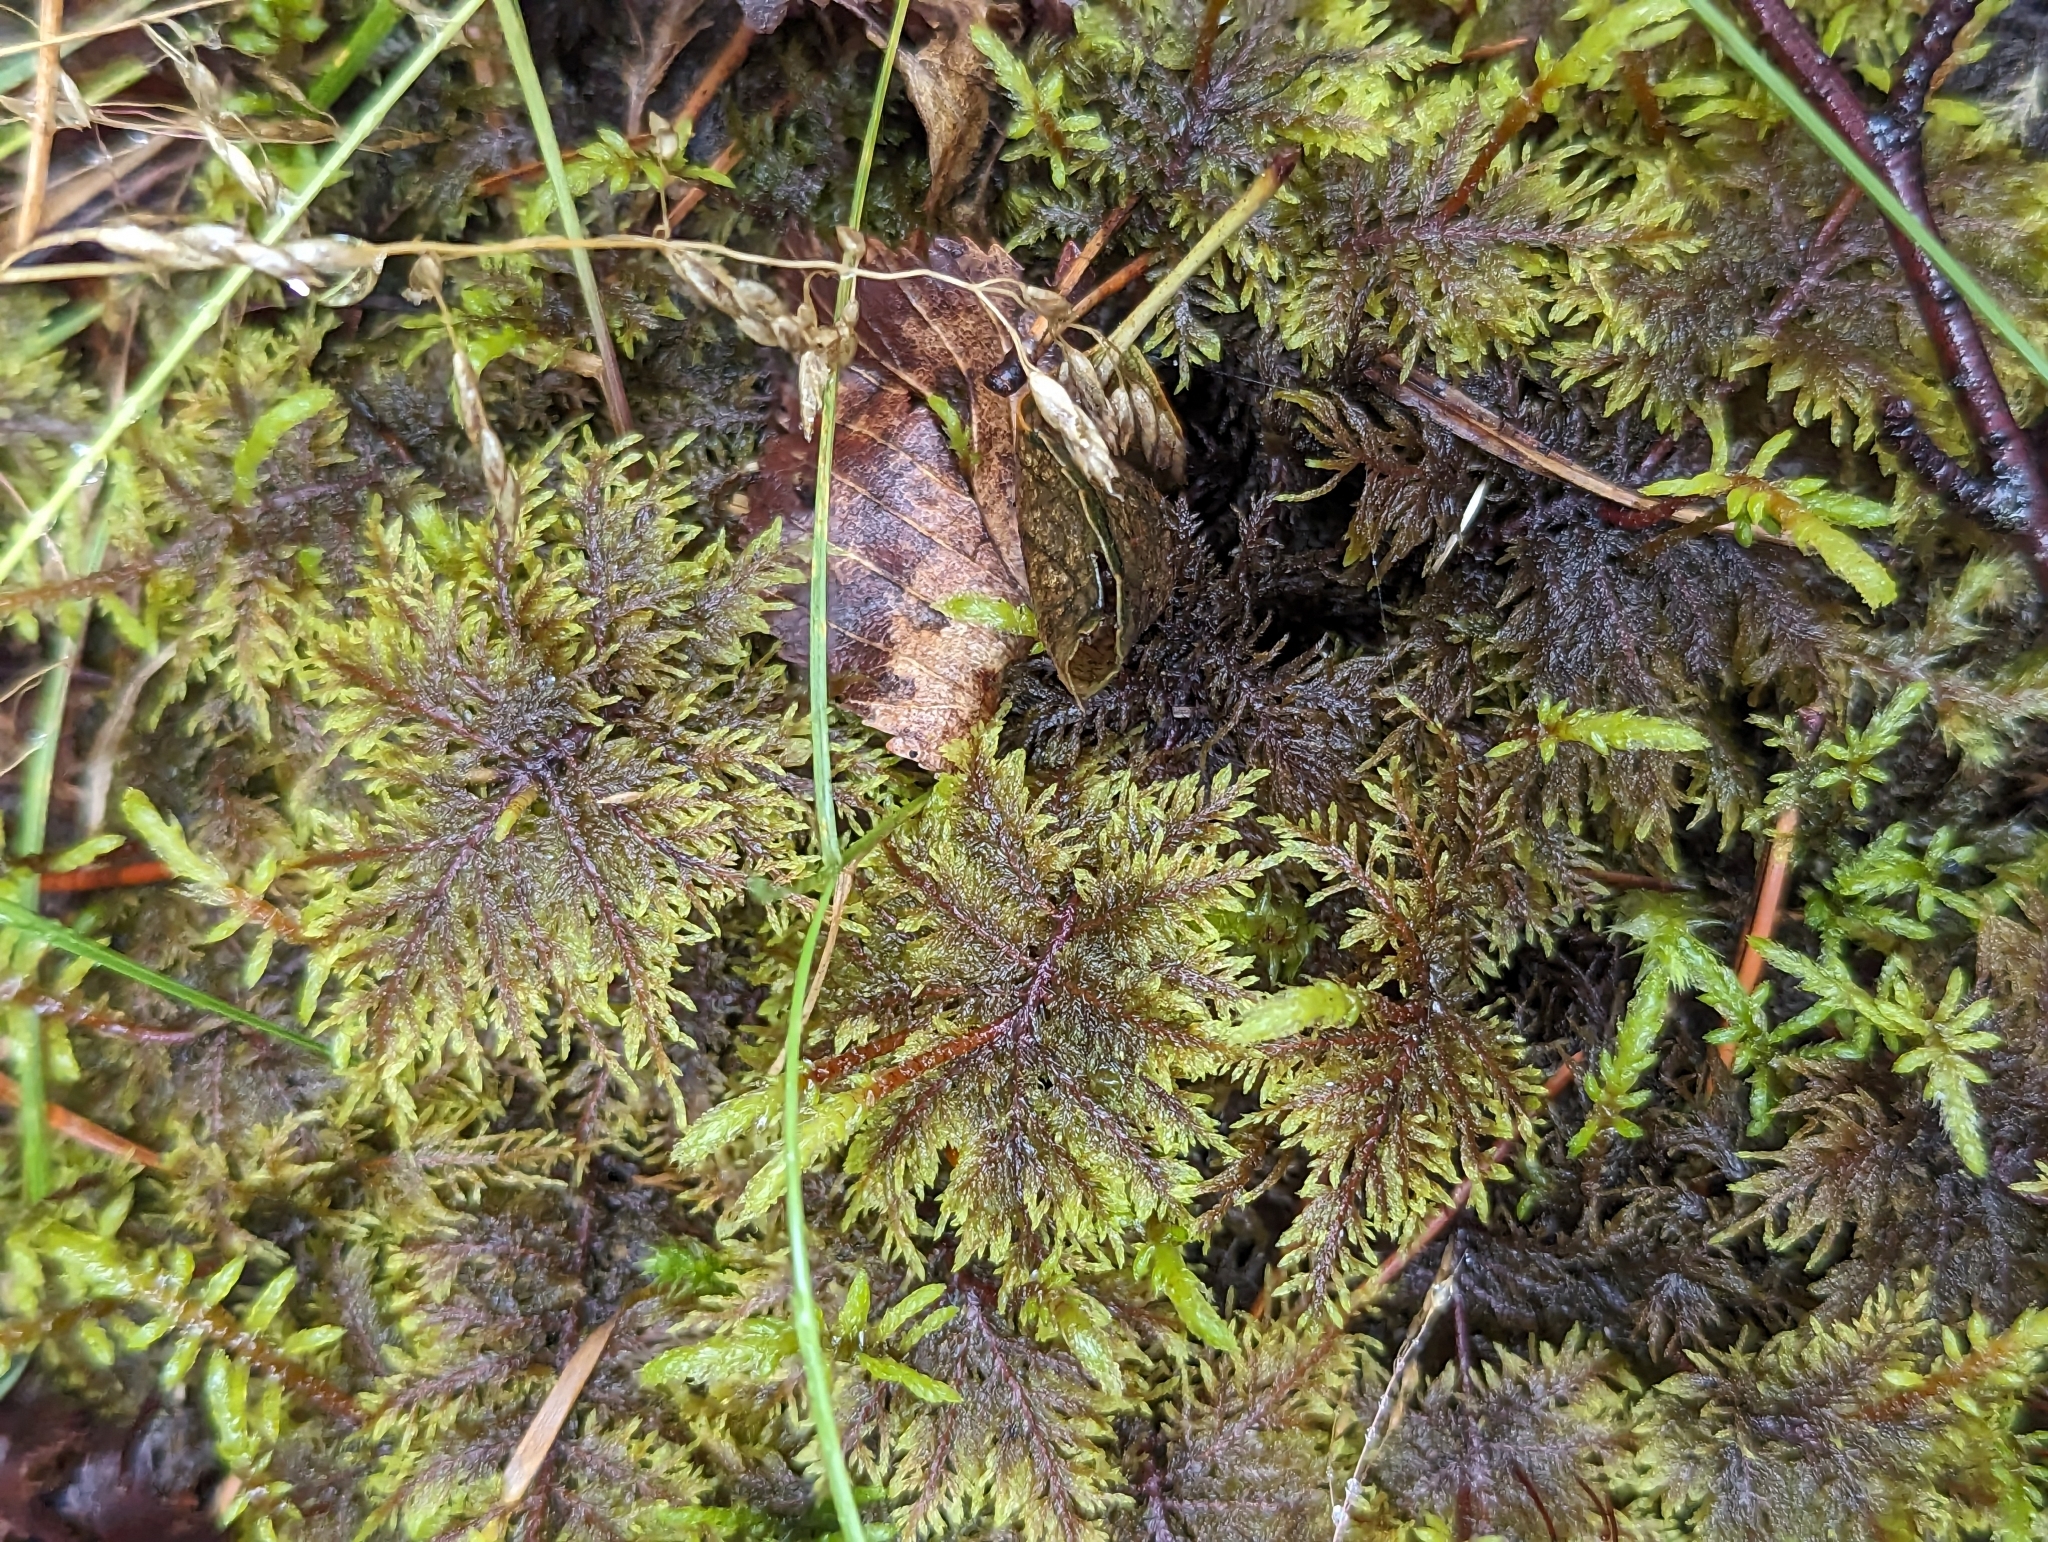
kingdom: Plantae
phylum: Bryophyta
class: Bryopsida
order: Hypnales
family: Hylocomiaceae
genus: Hylocomium
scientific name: Hylocomium splendens
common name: Stairstep moss
